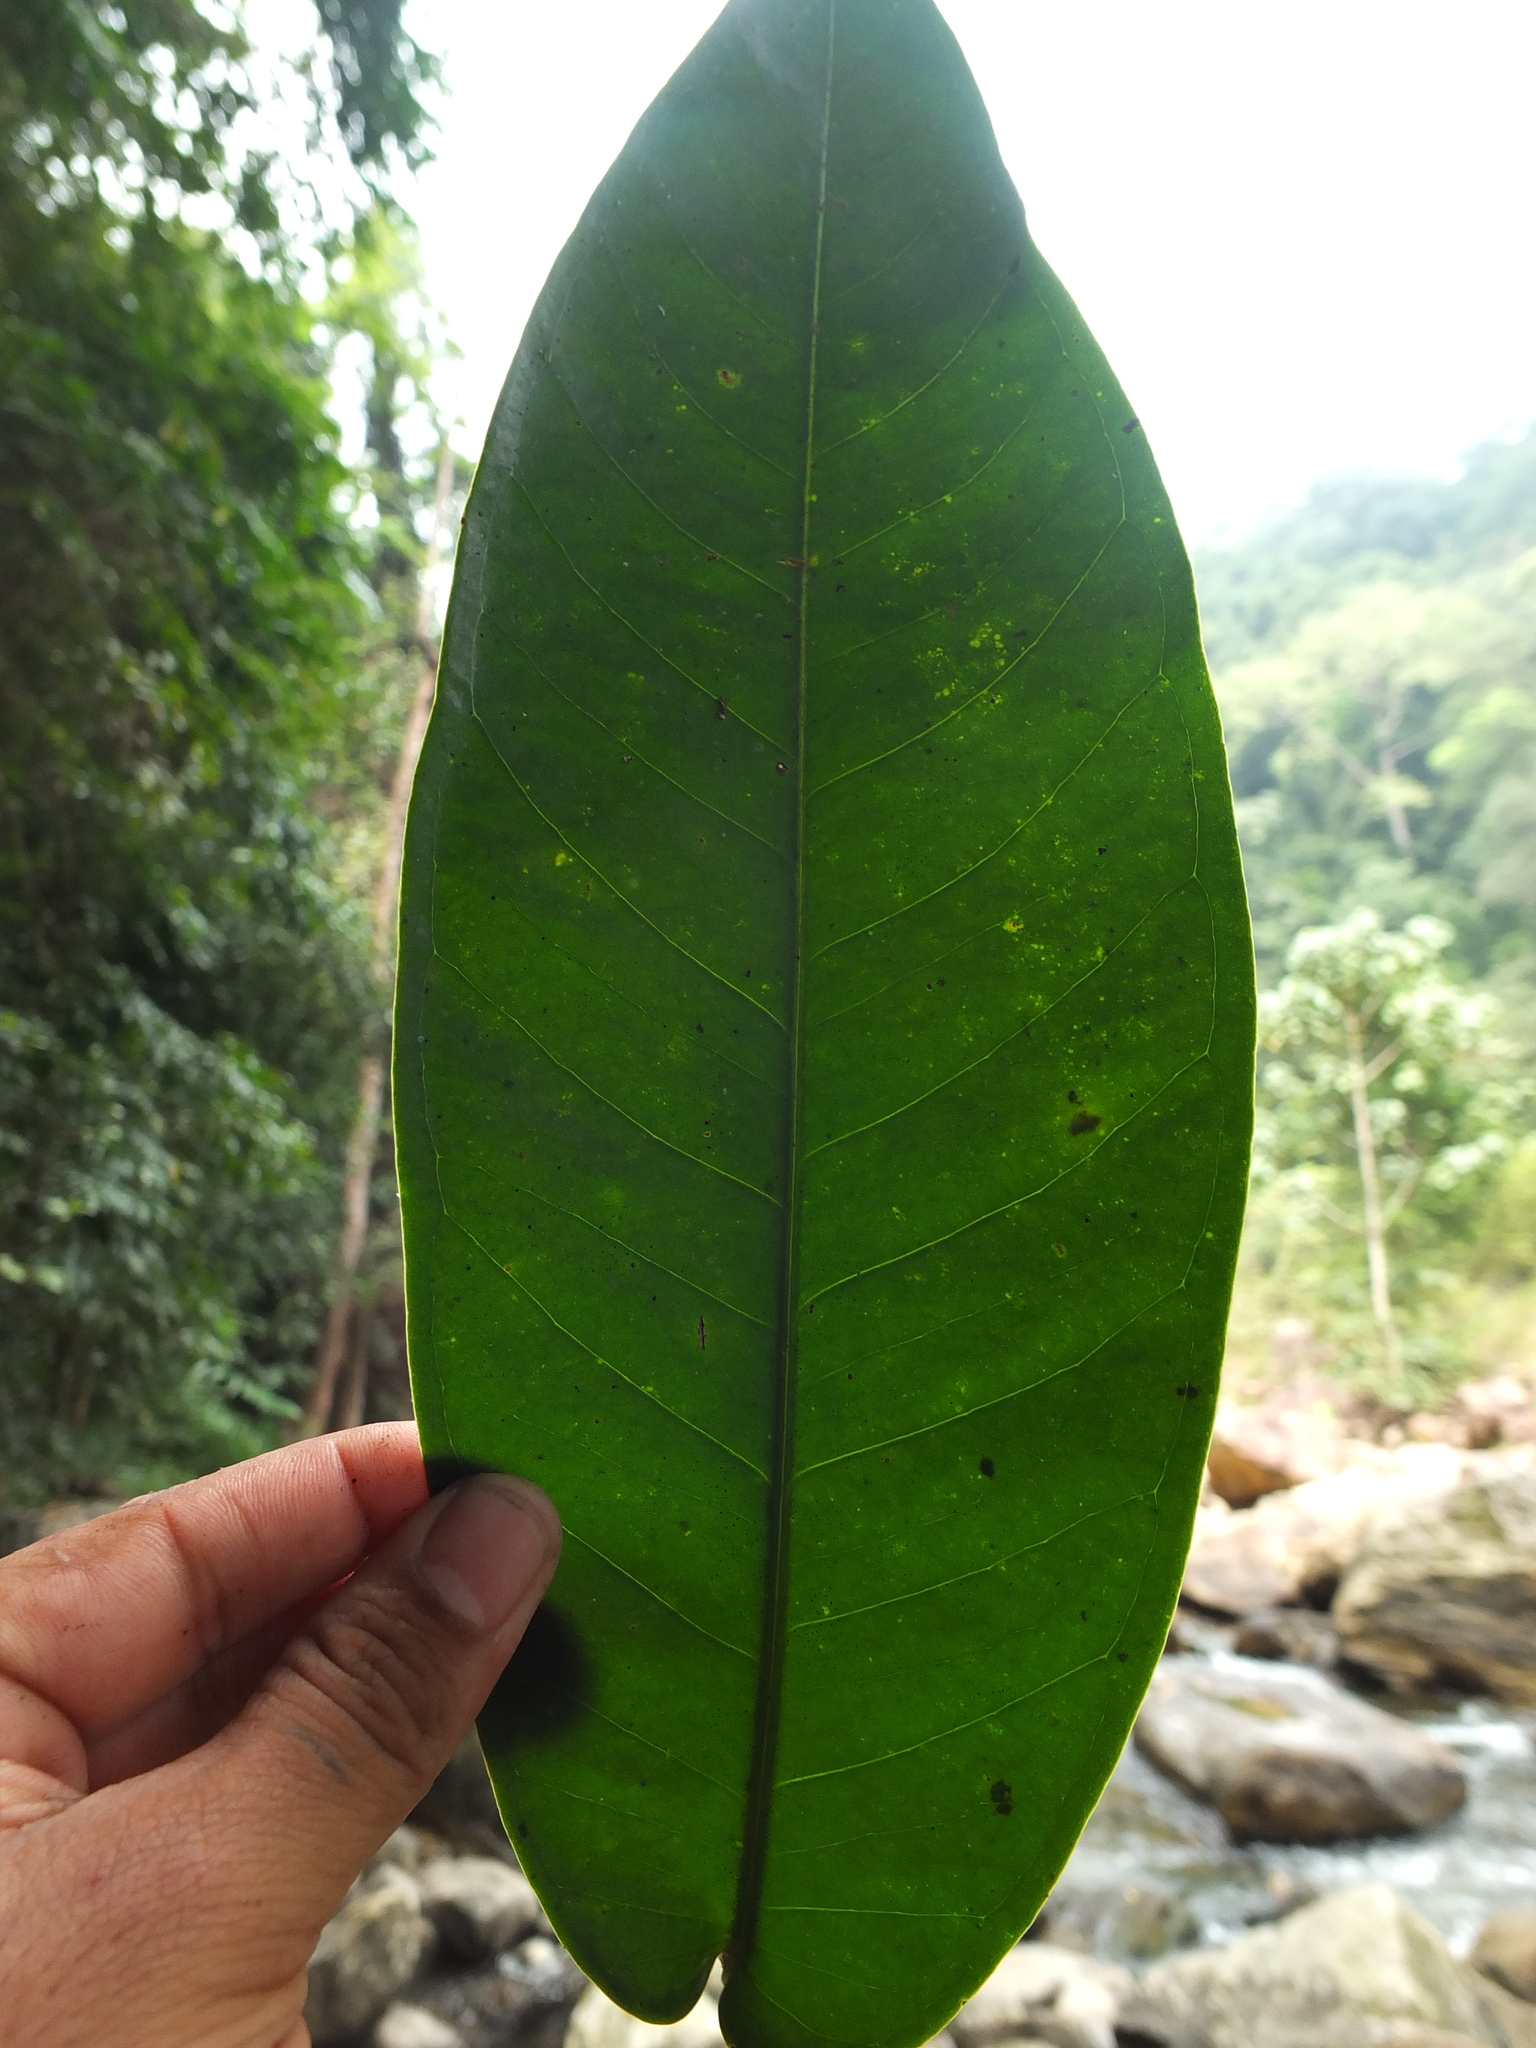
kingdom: Plantae
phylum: Tracheophyta
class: Magnoliopsida
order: Myrtales
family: Myrtaceae
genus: Syzygium
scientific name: Syzygium mundagam
